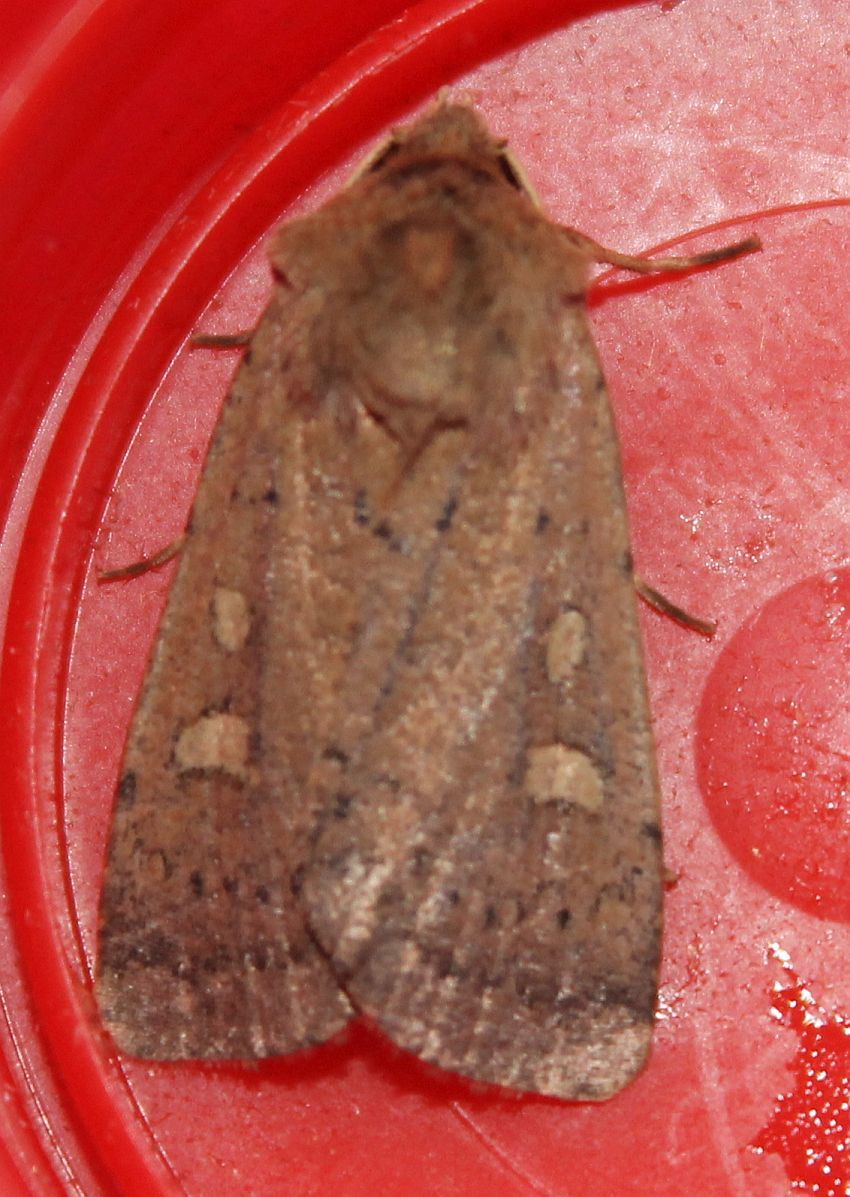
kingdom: Animalia
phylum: Arthropoda
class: Insecta
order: Lepidoptera
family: Noctuidae
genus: Xestia
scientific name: Xestia xanthographa
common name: Square-spot rustic
